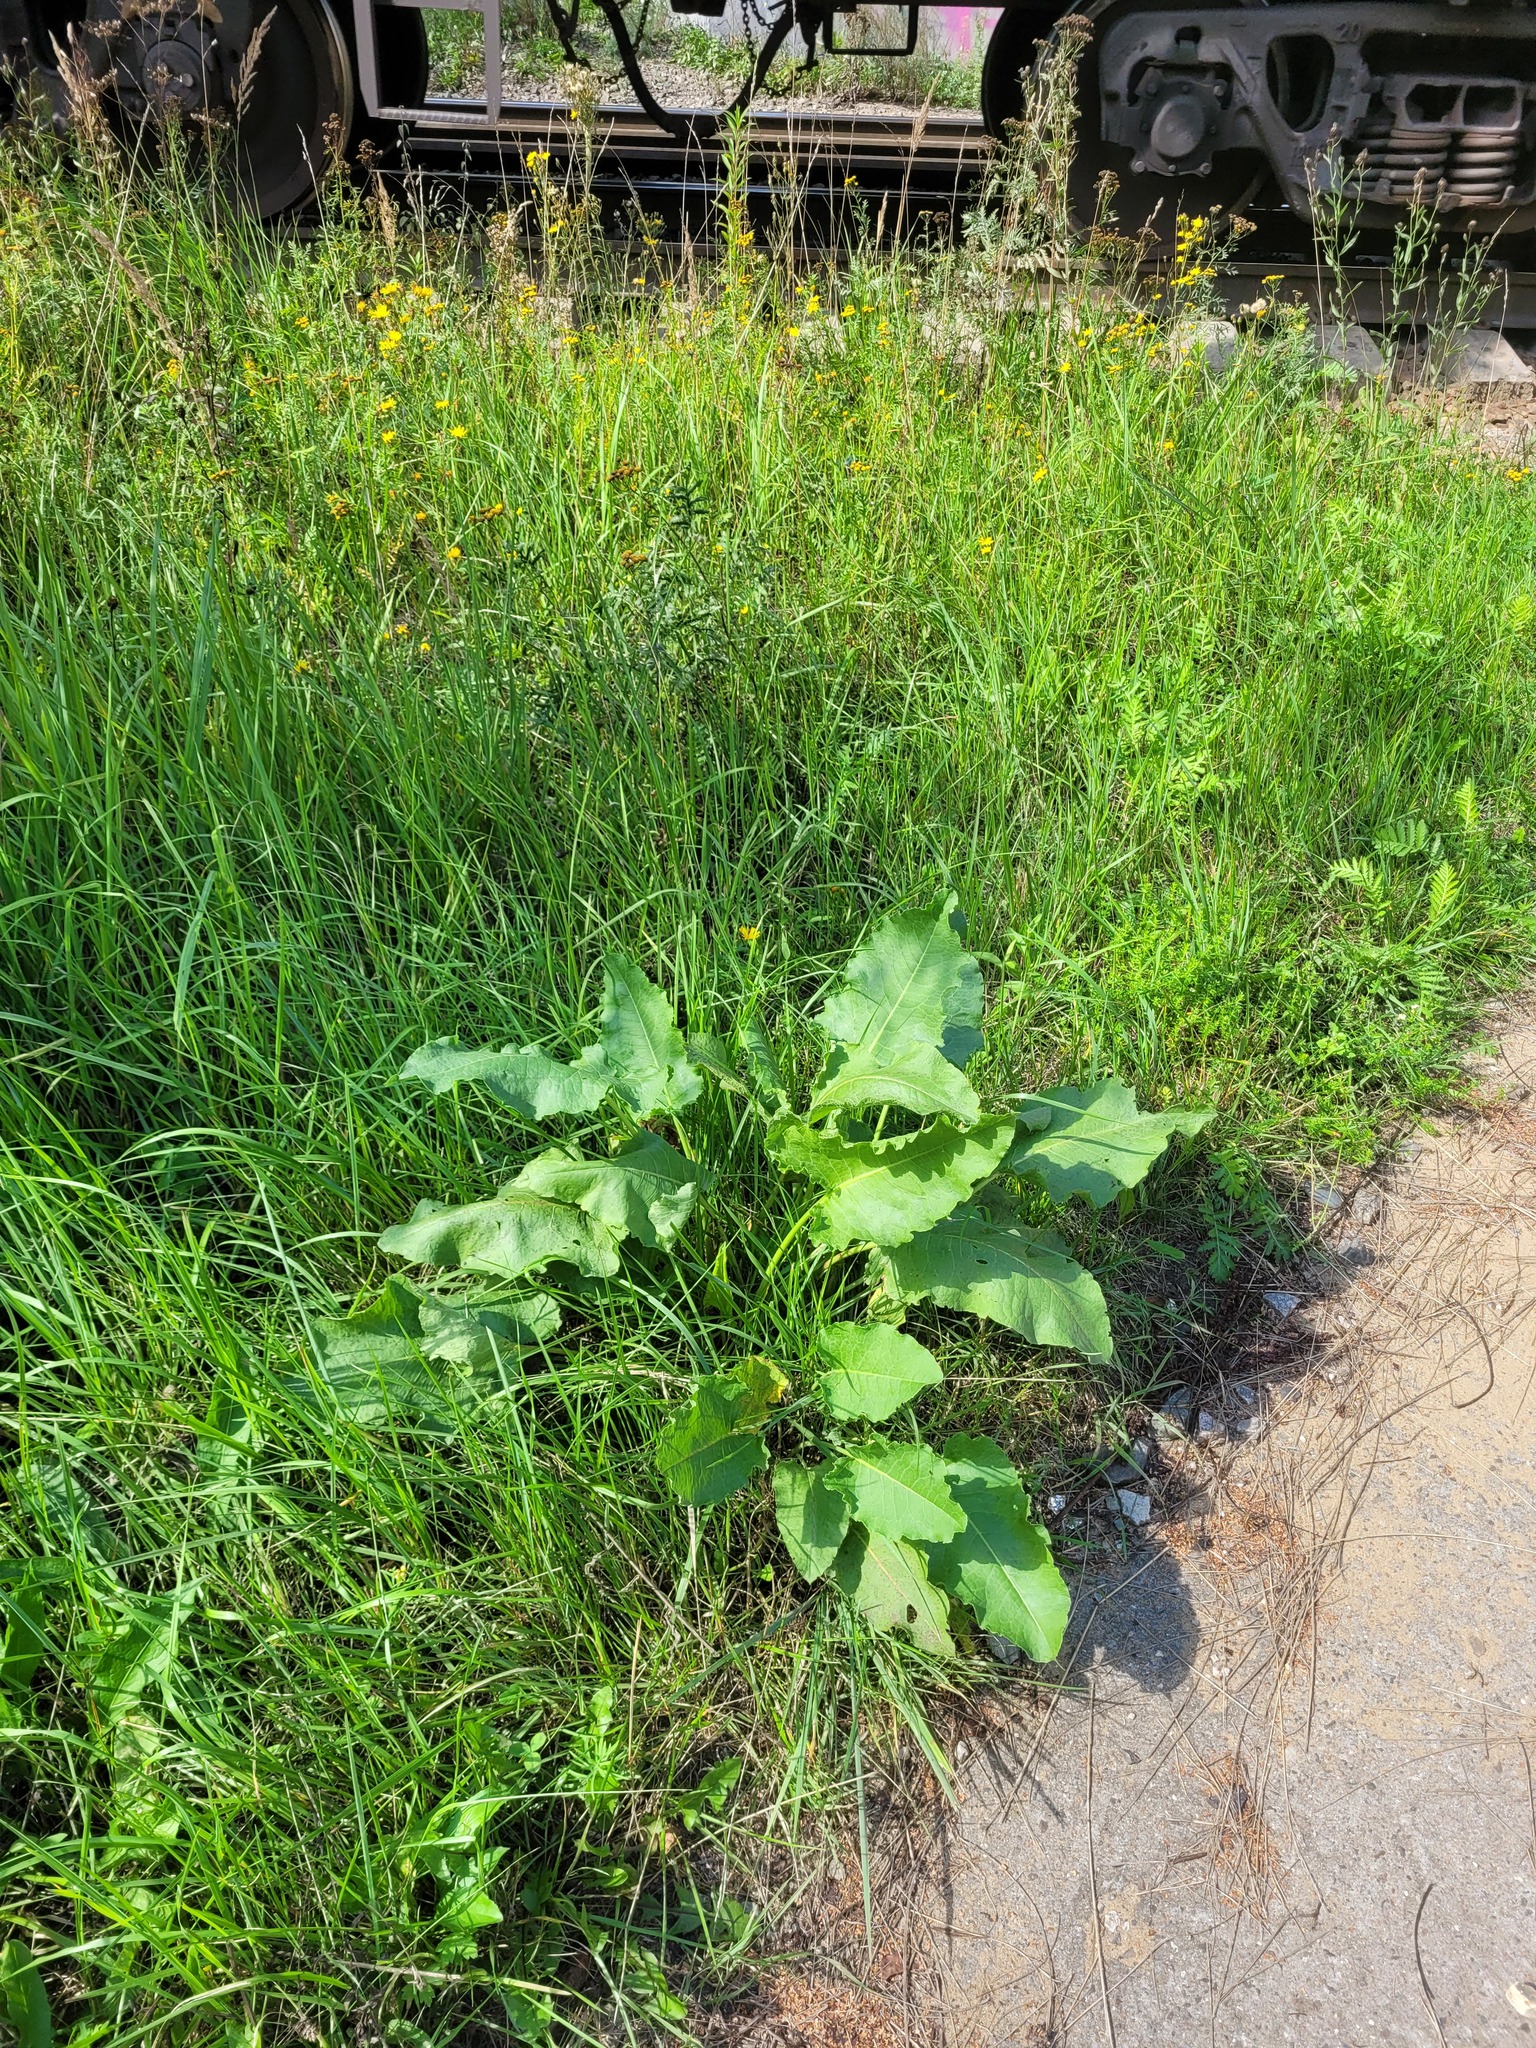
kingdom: Plantae
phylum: Tracheophyta
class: Magnoliopsida
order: Caryophyllales
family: Polygonaceae
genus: Rumex
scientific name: Rumex confertus
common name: Russian dock
